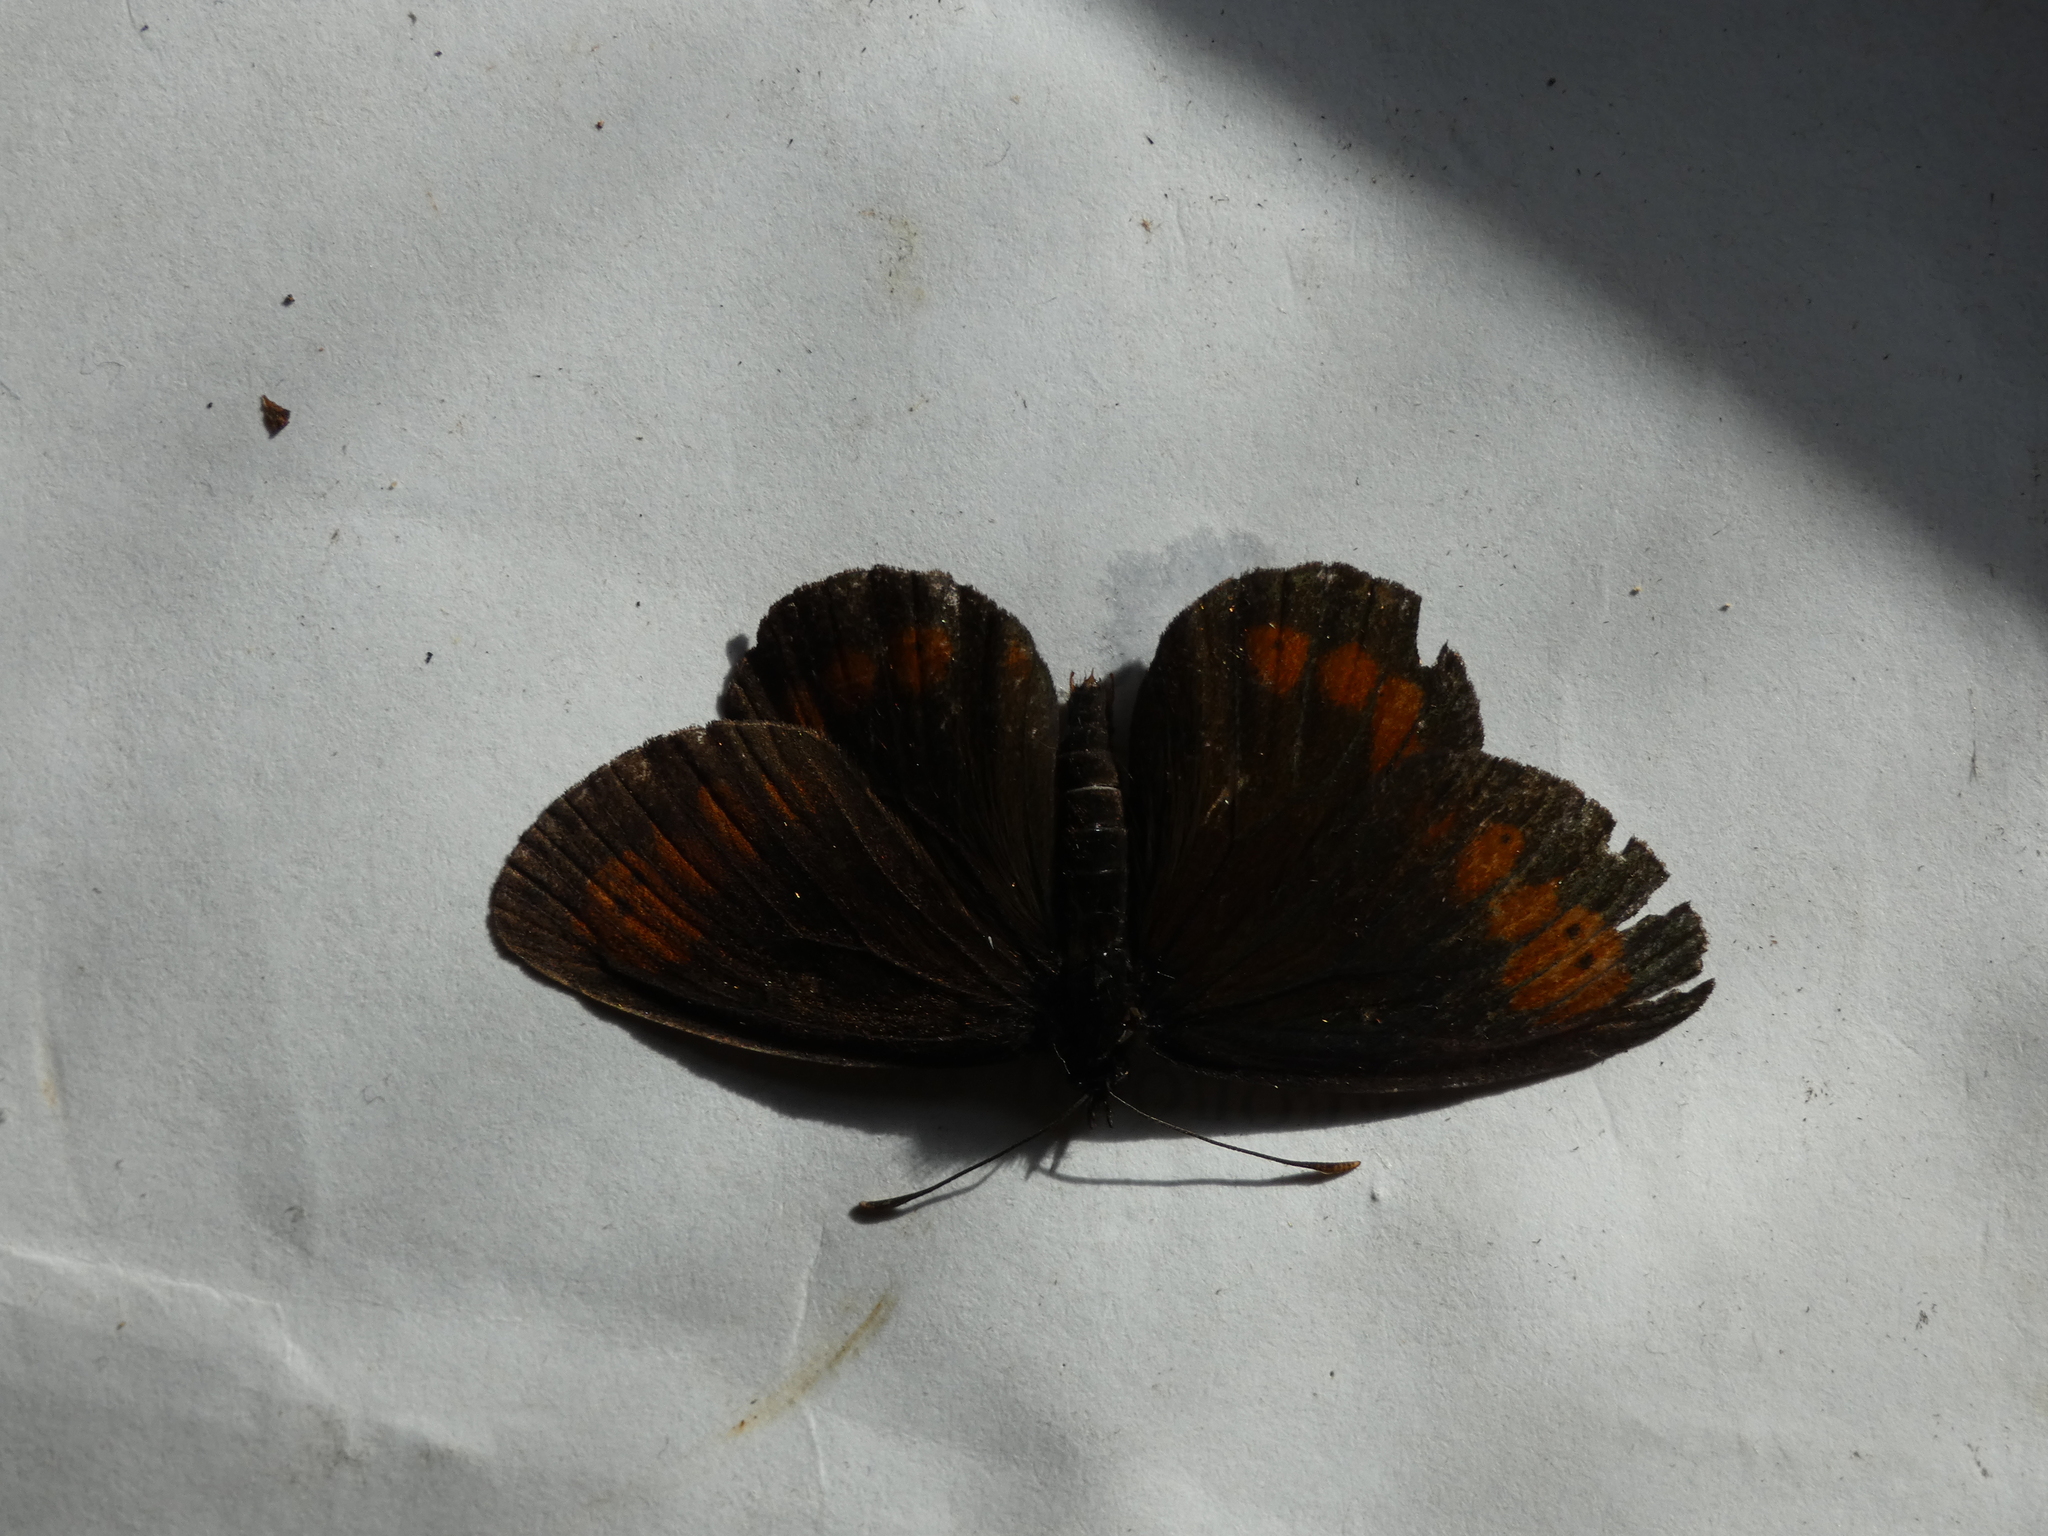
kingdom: Animalia
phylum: Arthropoda
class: Insecta
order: Lepidoptera
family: Nymphalidae
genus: Erebia
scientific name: Erebia euryale
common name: Large ringlet
